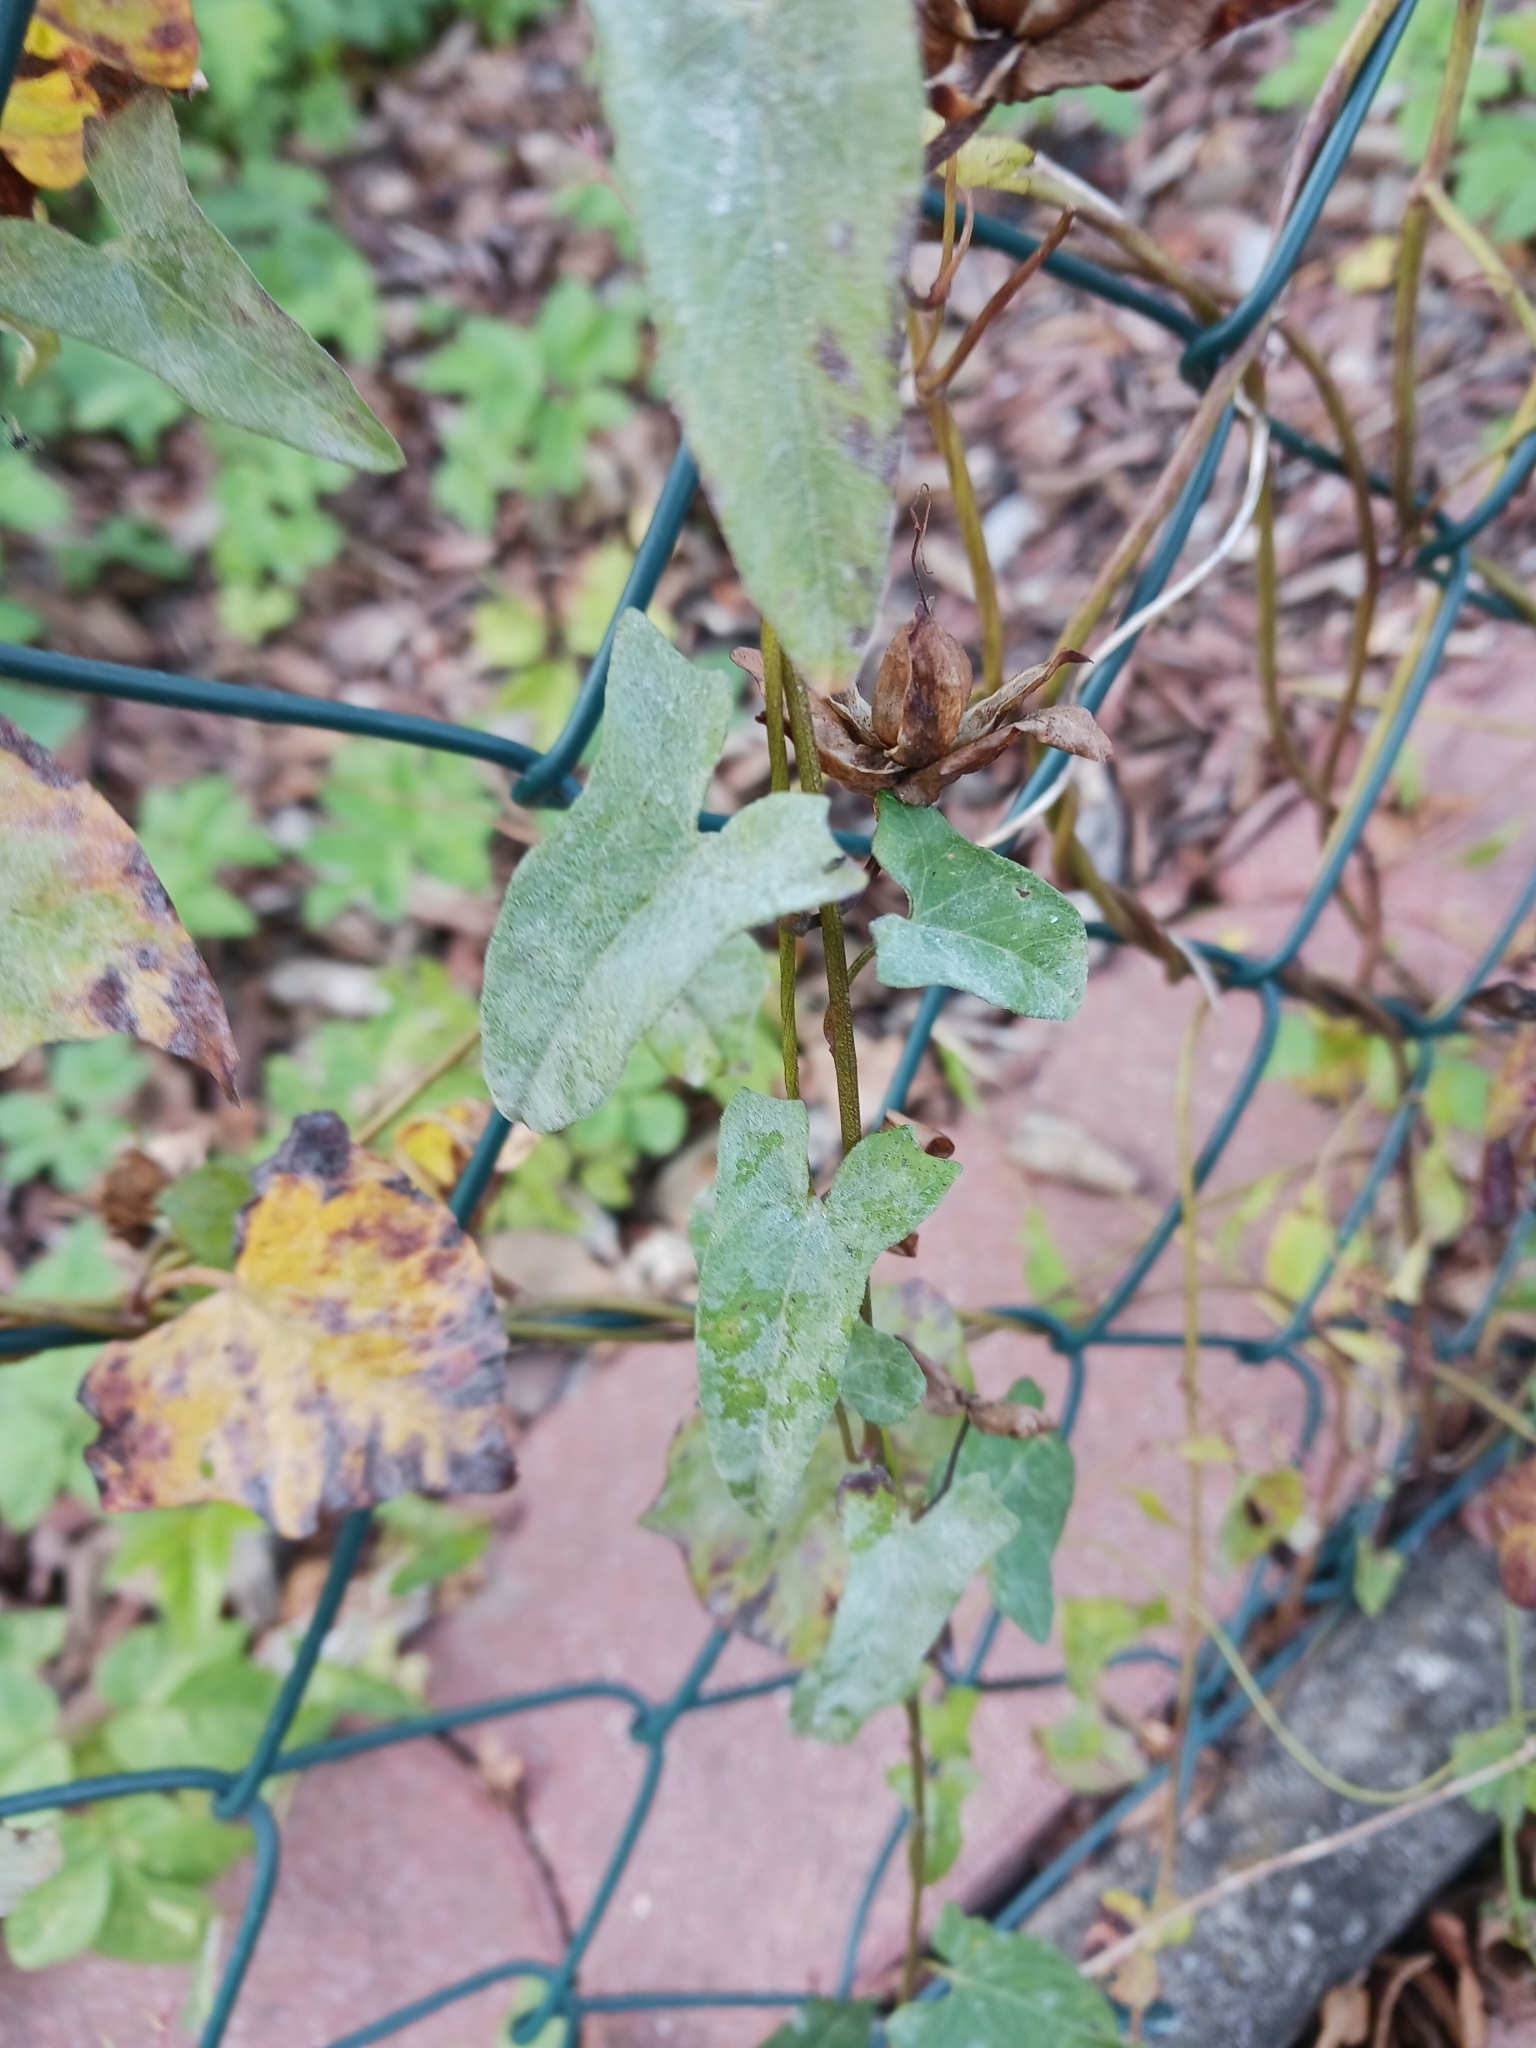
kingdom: Fungi
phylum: Ascomycota
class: Leotiomycetes
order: Helotiales
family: Erysiphaceae
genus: Erysiphe
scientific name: Erysiphe convolvuli
